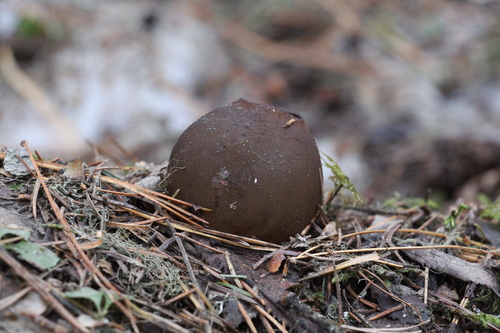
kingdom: Fungi
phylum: Ascomycota
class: Pezizomycetes
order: Pezizales
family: Sarcosomataceae
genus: Sarcosoma
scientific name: Sarcosoma globosum
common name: Charred-pancake cup
